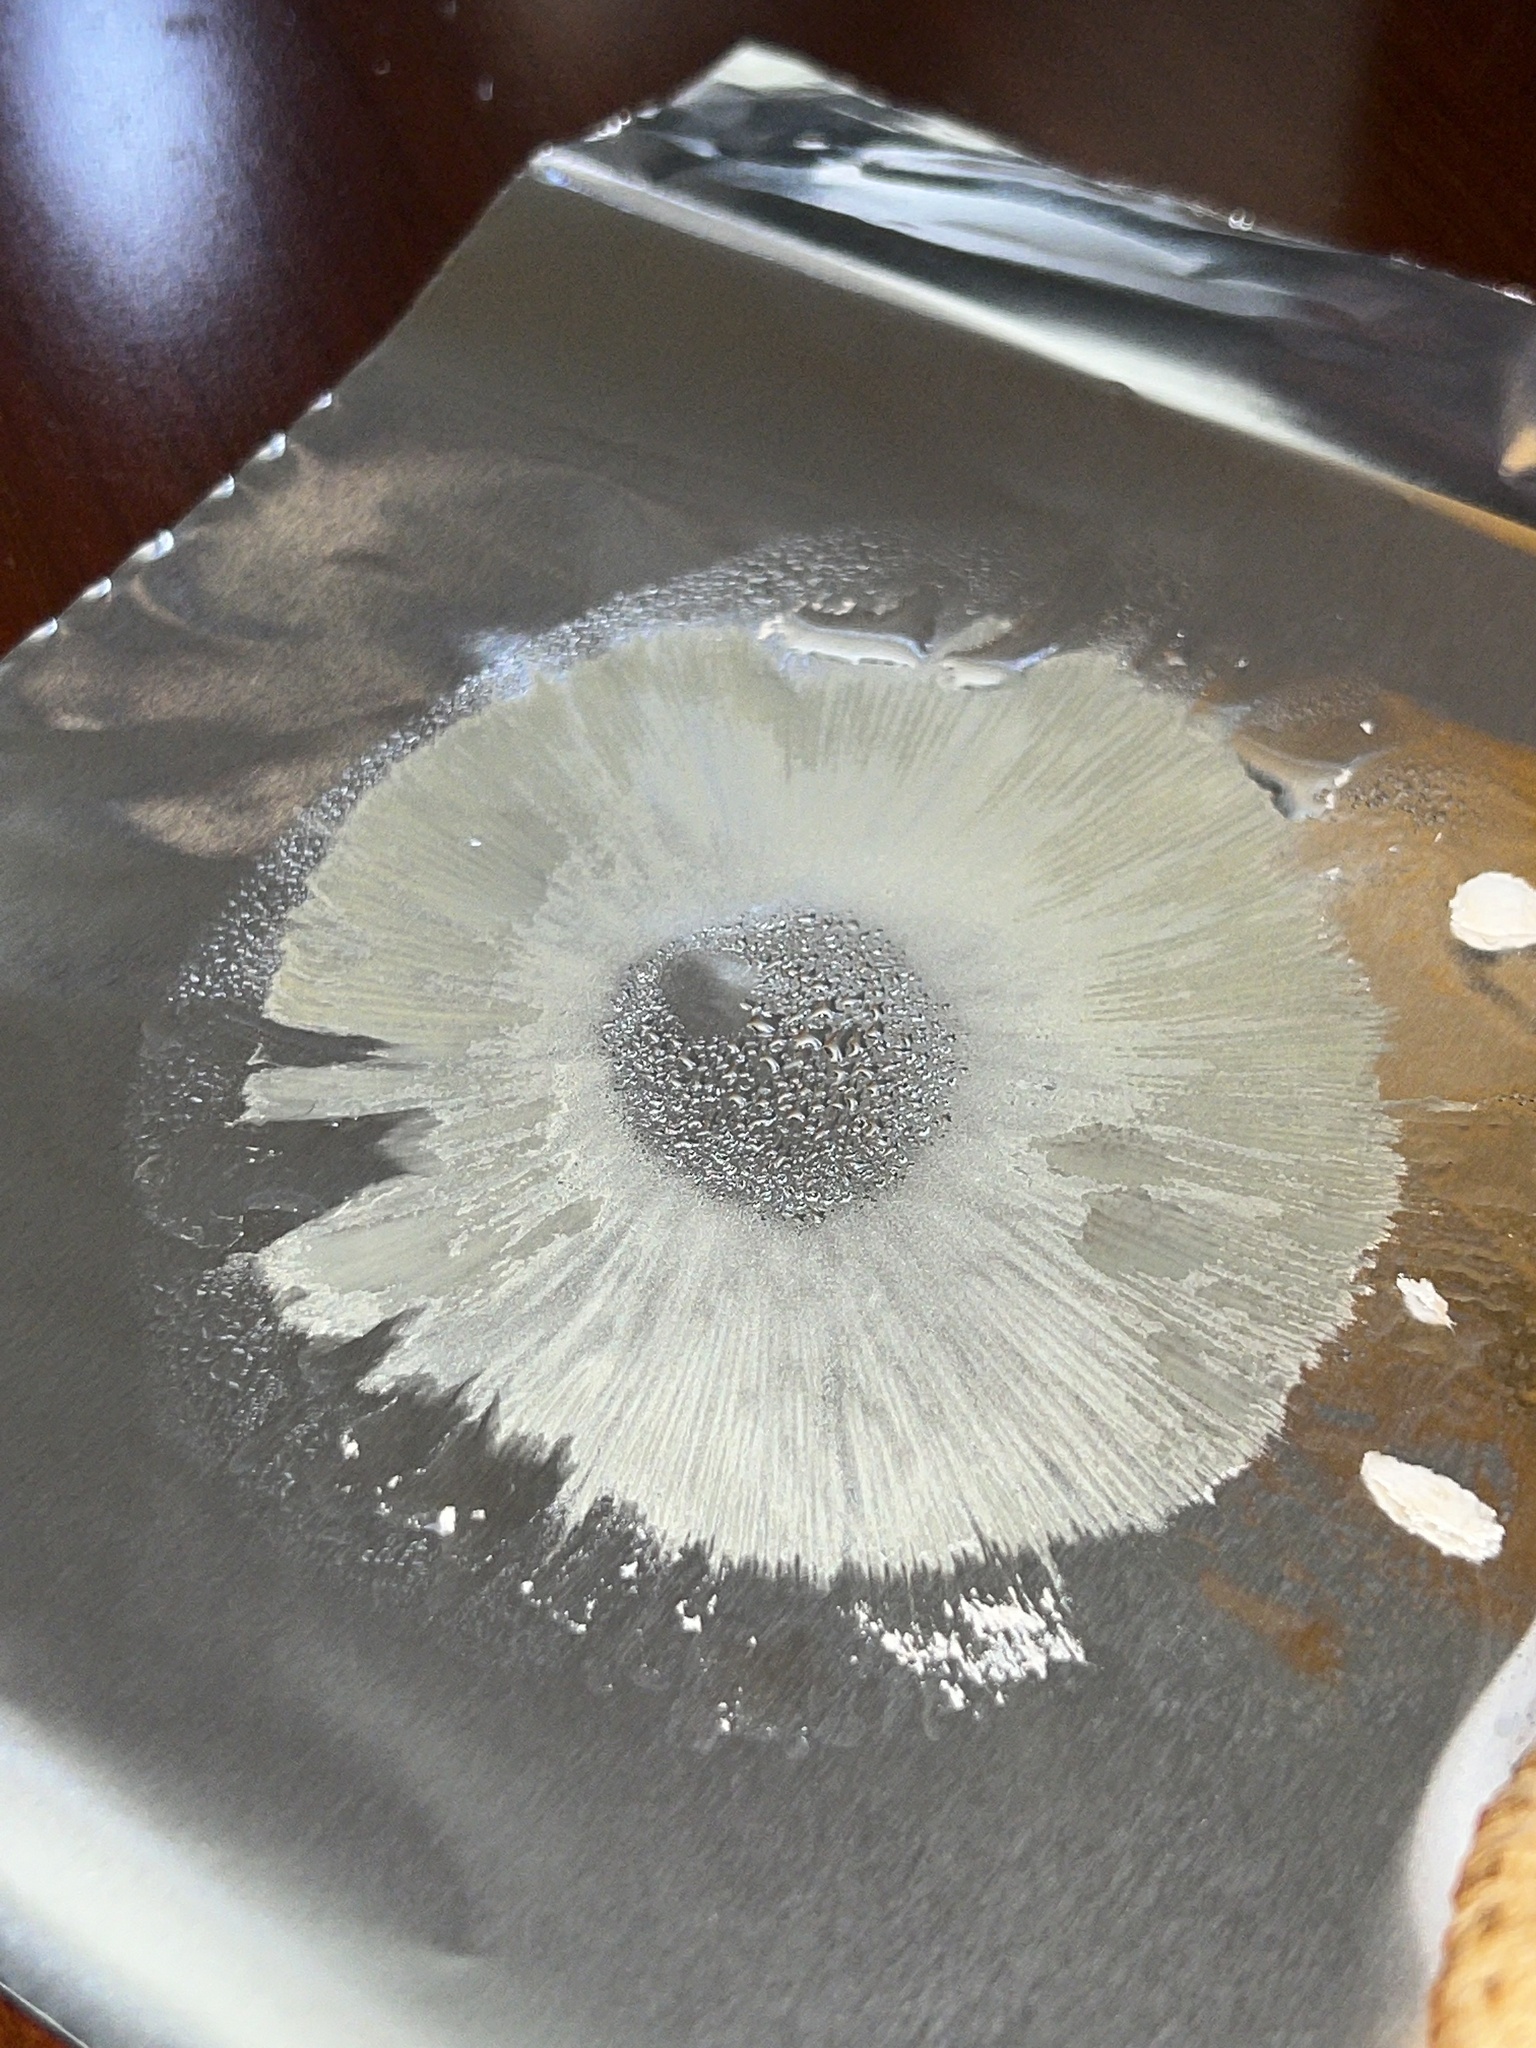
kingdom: Fungi
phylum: Basidiomycota
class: Agaricomycetes
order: Agaricales
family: Agaricaceae
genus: Chlorophyllum
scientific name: Chlorophyllum molybdites
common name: False parasol
